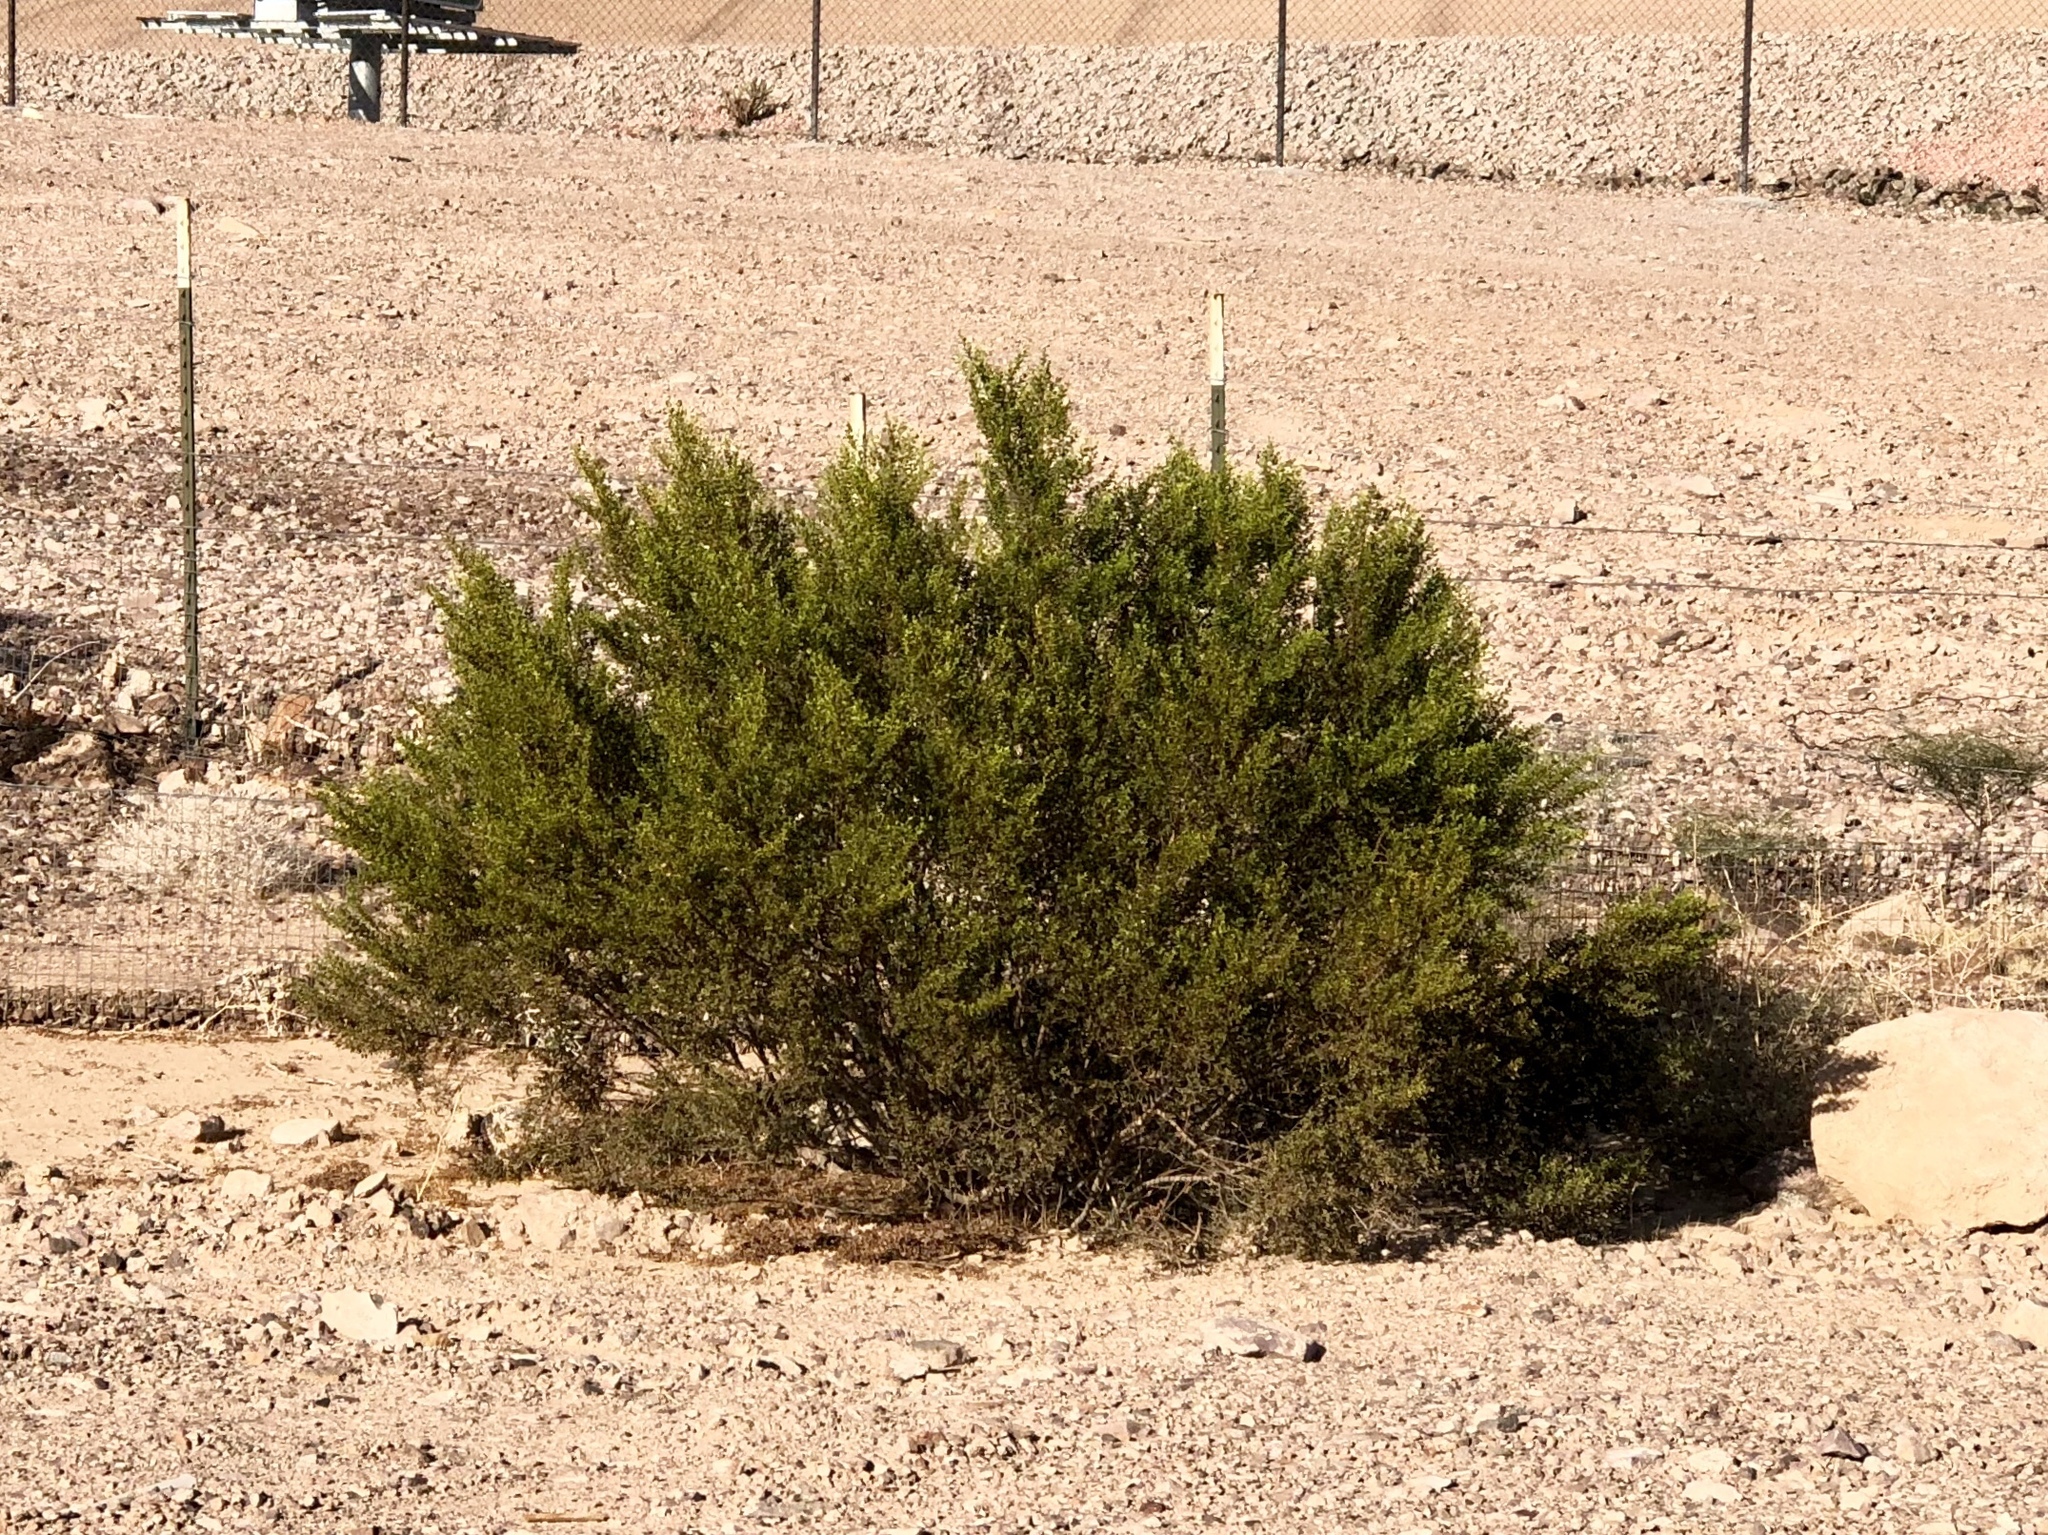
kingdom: Plantae
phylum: Tracheophyta
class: Magnoliopsida
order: Zygophyllales
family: Zygophyllaceae
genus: Larrea
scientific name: Larrea tridentata
